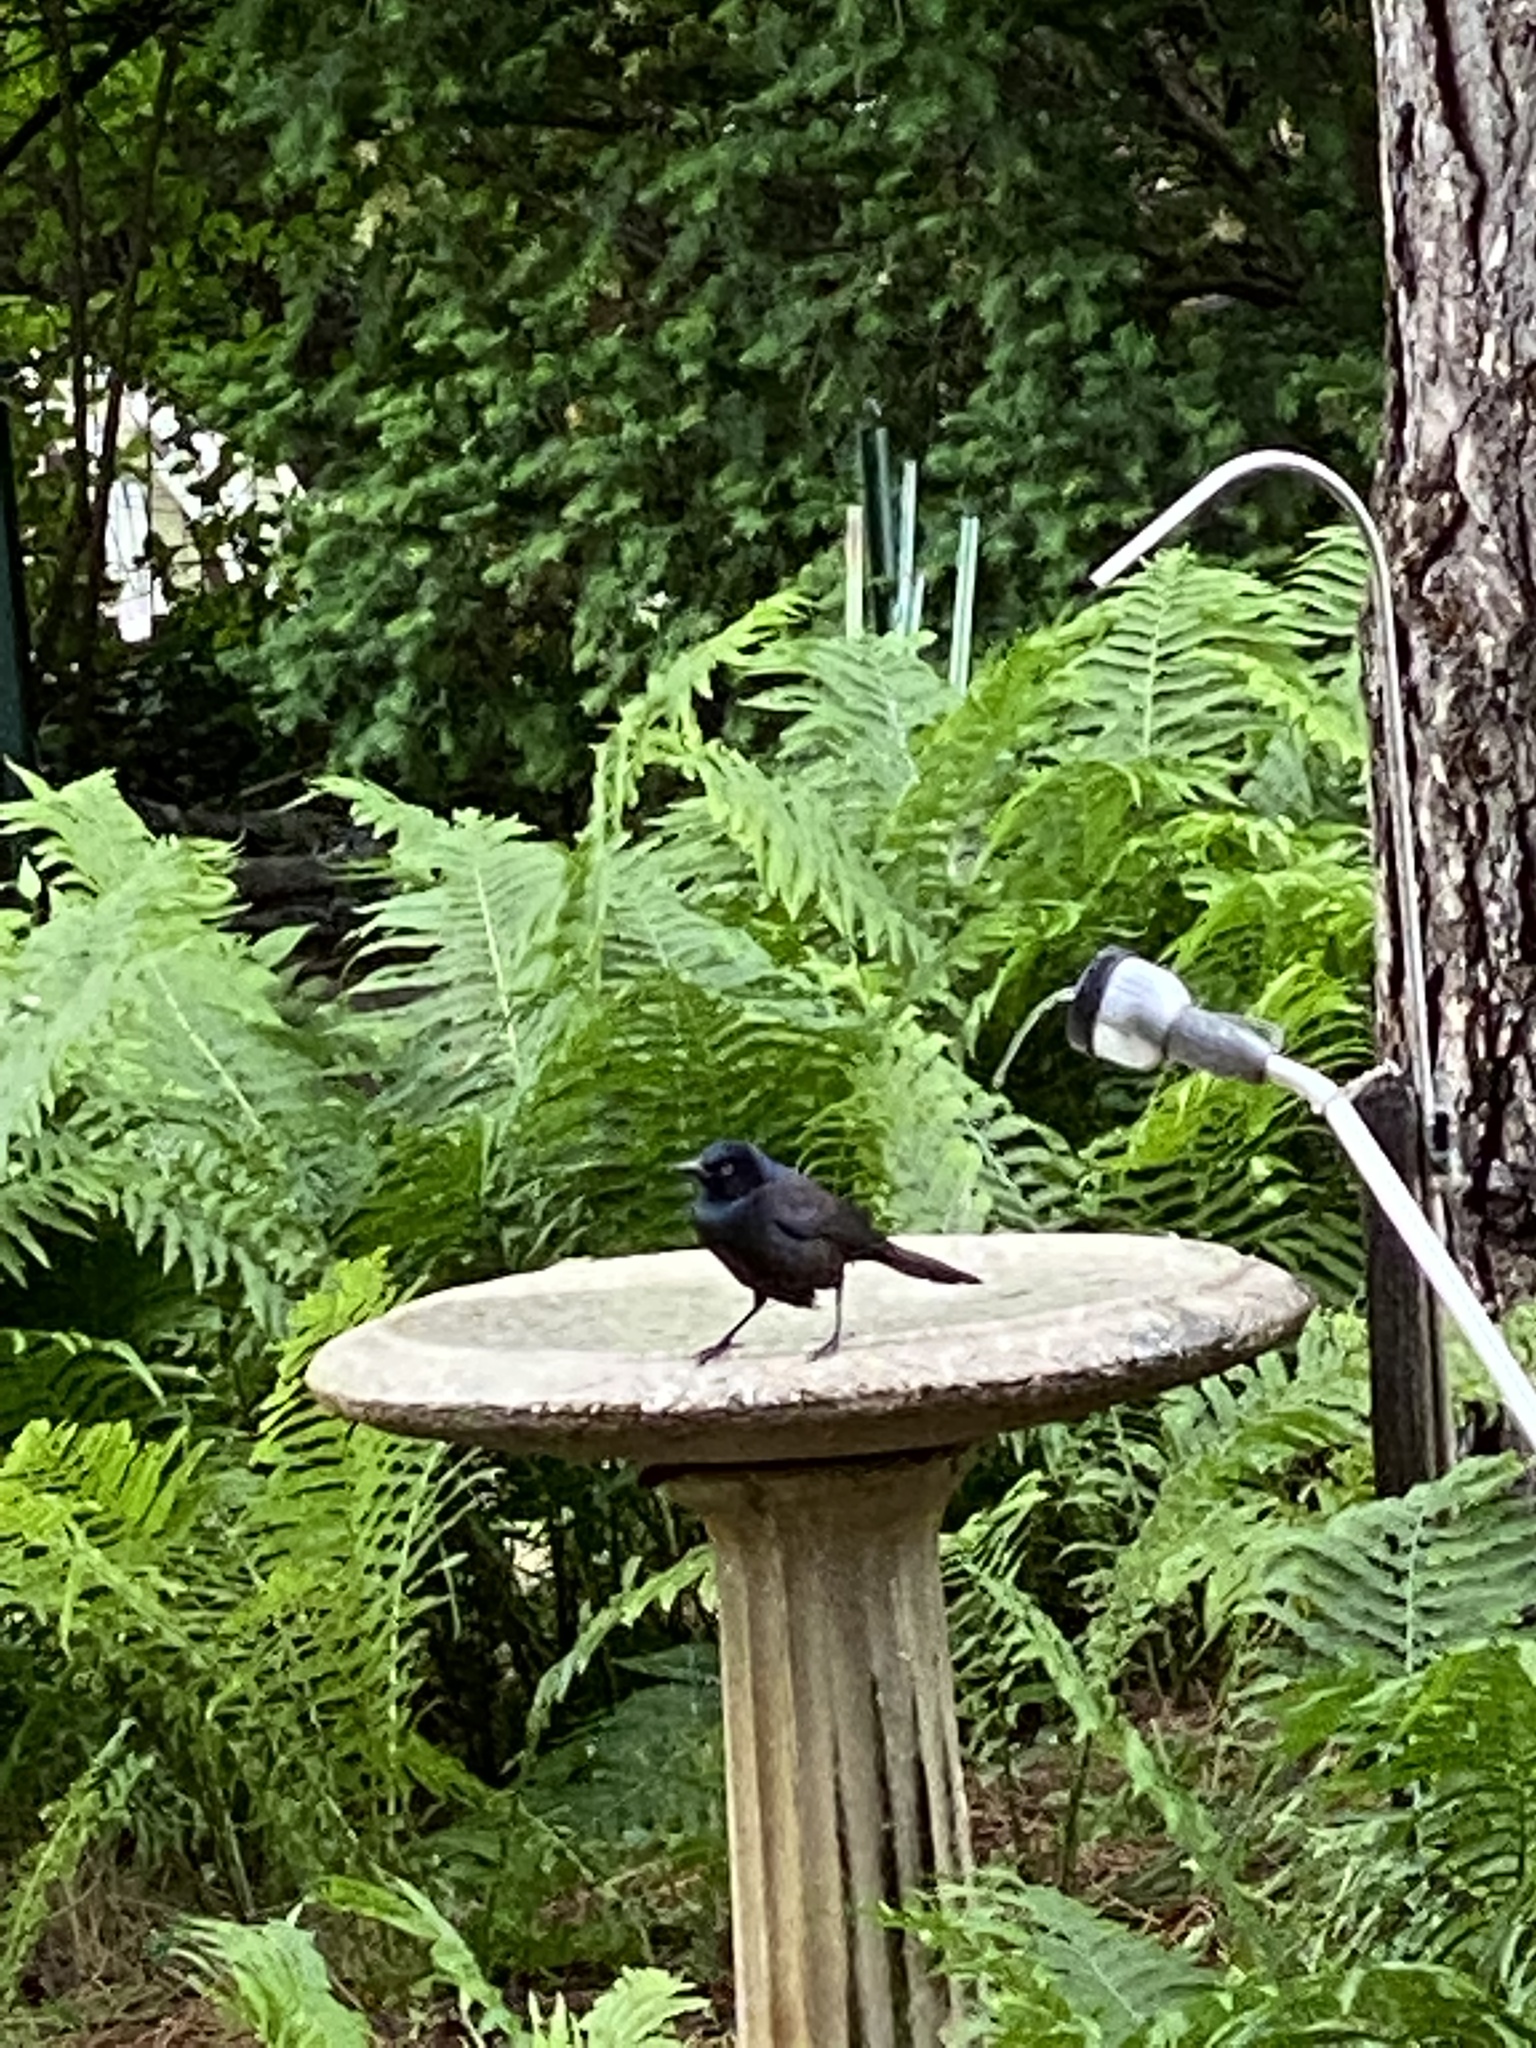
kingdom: Animalia
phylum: Chordata
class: Aves
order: Passeriformes
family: Icteridae
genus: Quiscalus
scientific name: Quiscalus quiscula
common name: Common grackle
